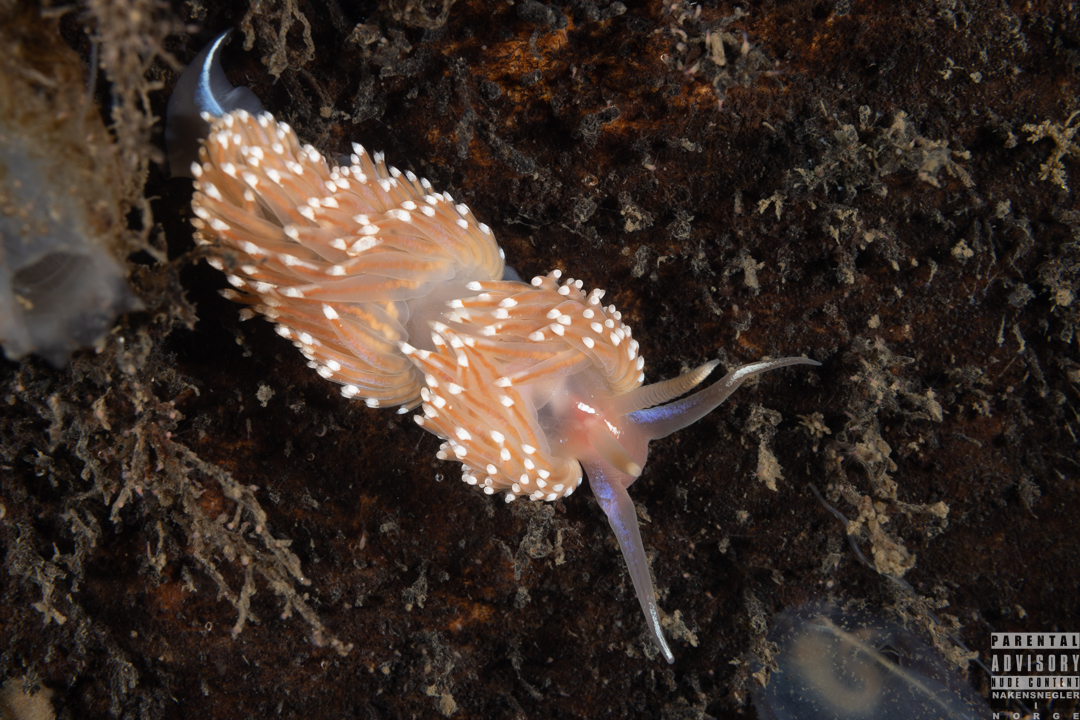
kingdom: Animalia
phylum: Mollusca
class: Gastropoda
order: Nudibranchia
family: Facelinidae
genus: Facelina
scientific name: Facelina bostoniensis
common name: Boston facelina
